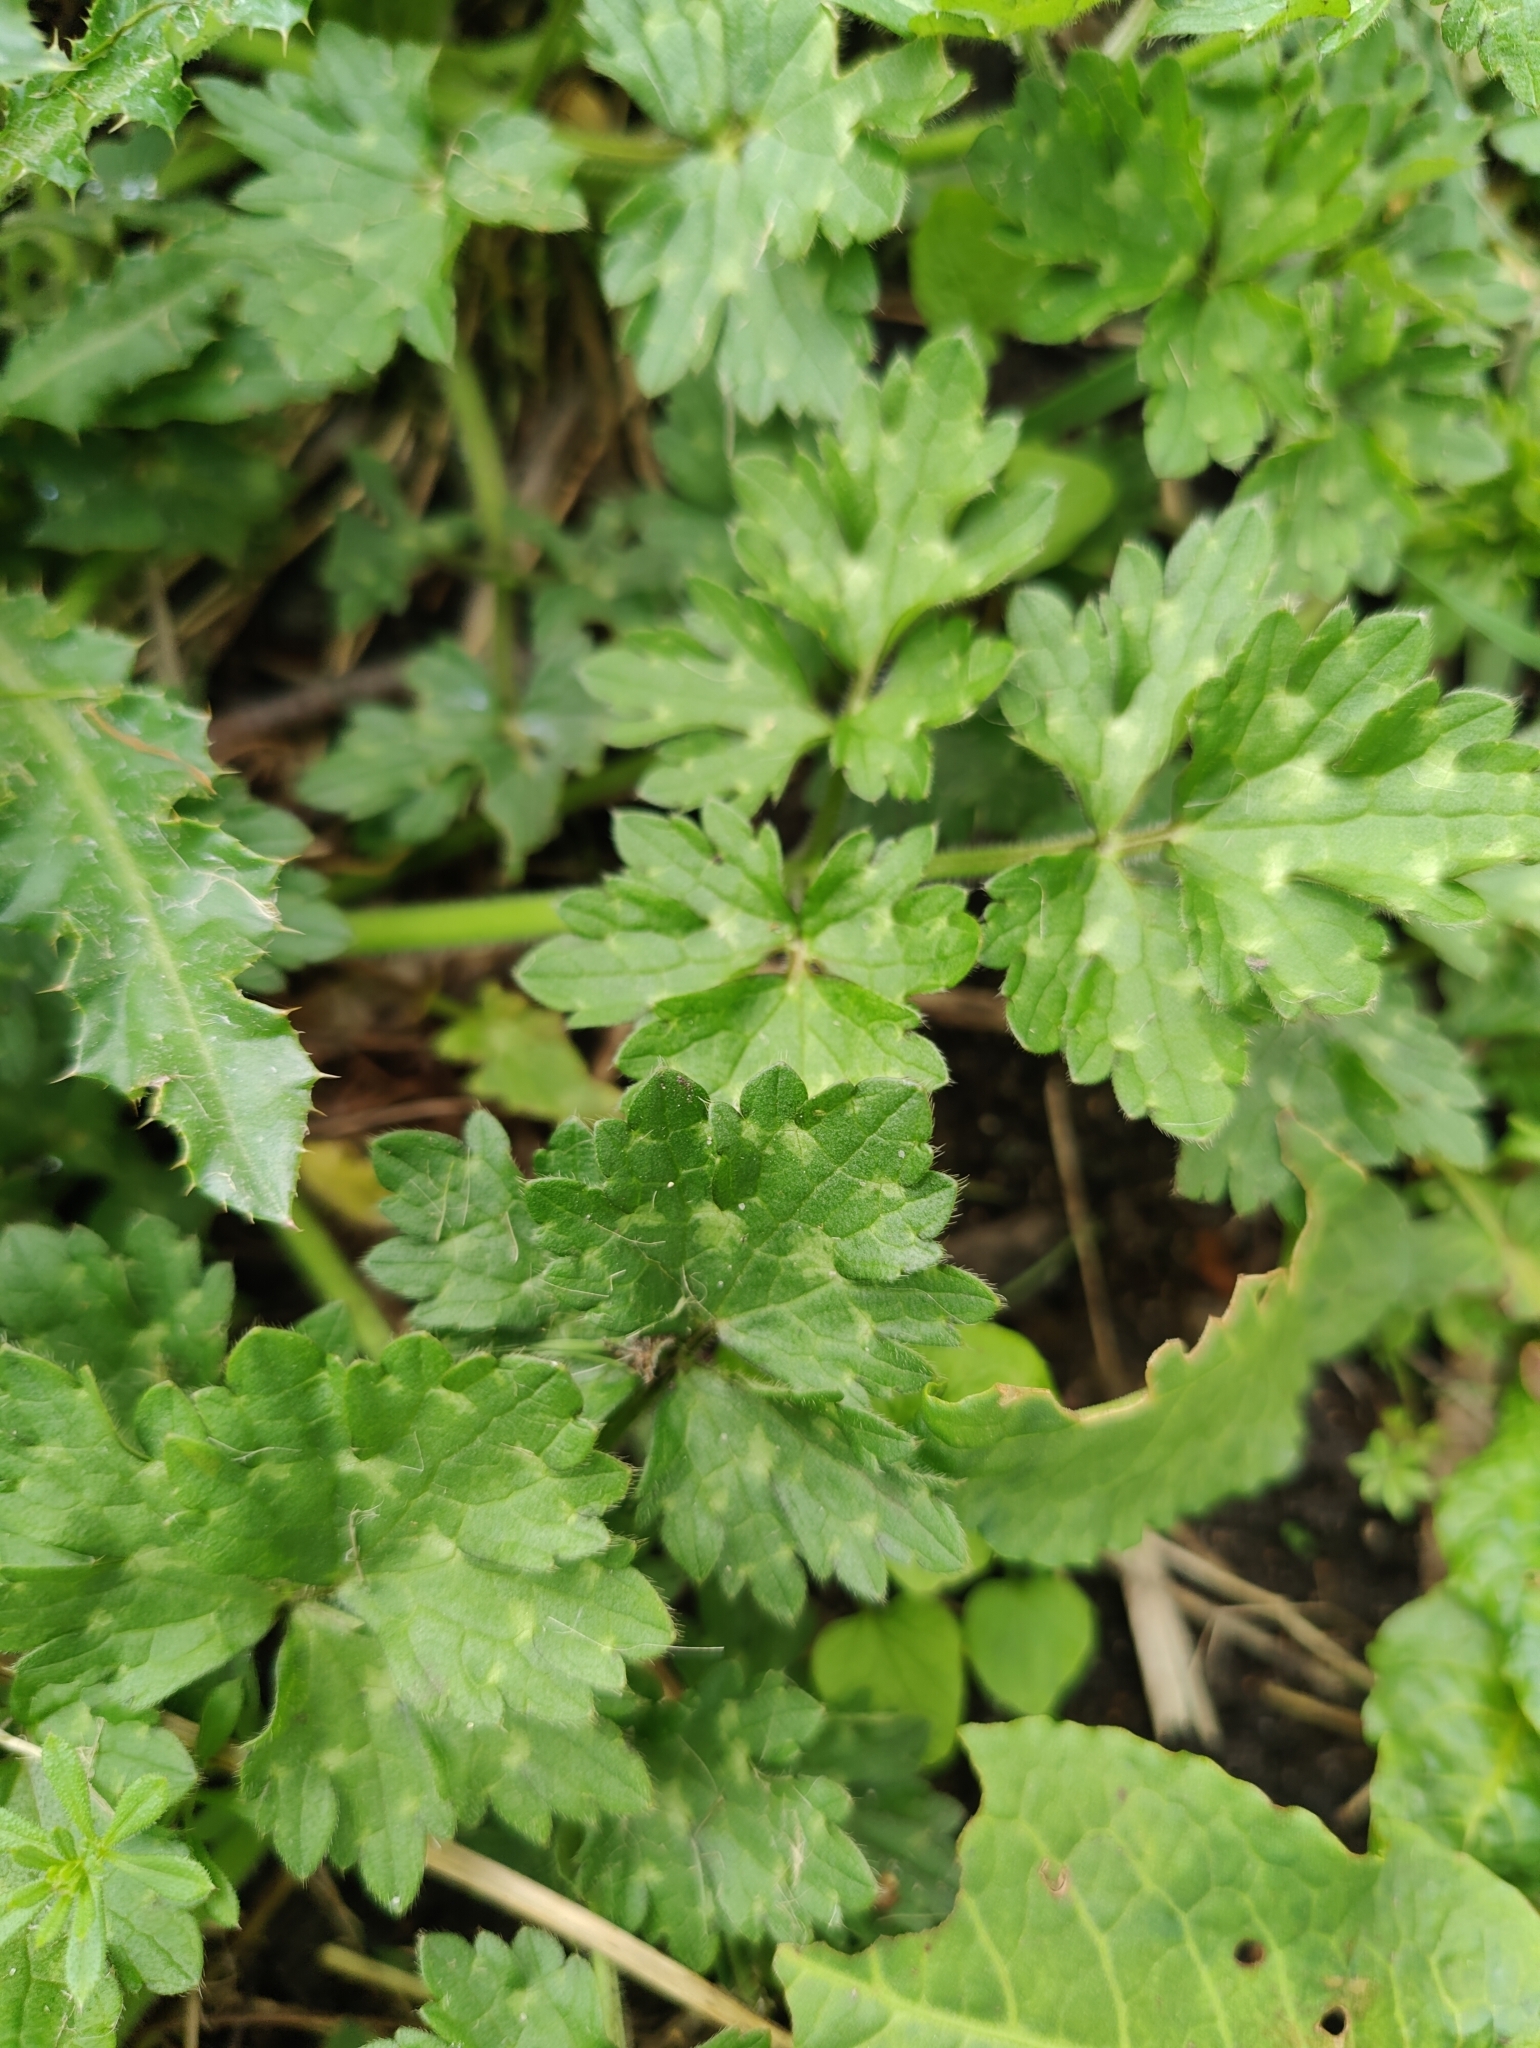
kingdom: Plantae
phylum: Tracheophyta
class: Magnoliopsida
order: Ranunculales
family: Ranunculaceae
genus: Ranunculus
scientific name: Ranunculus repens
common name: Creeping buttercup
